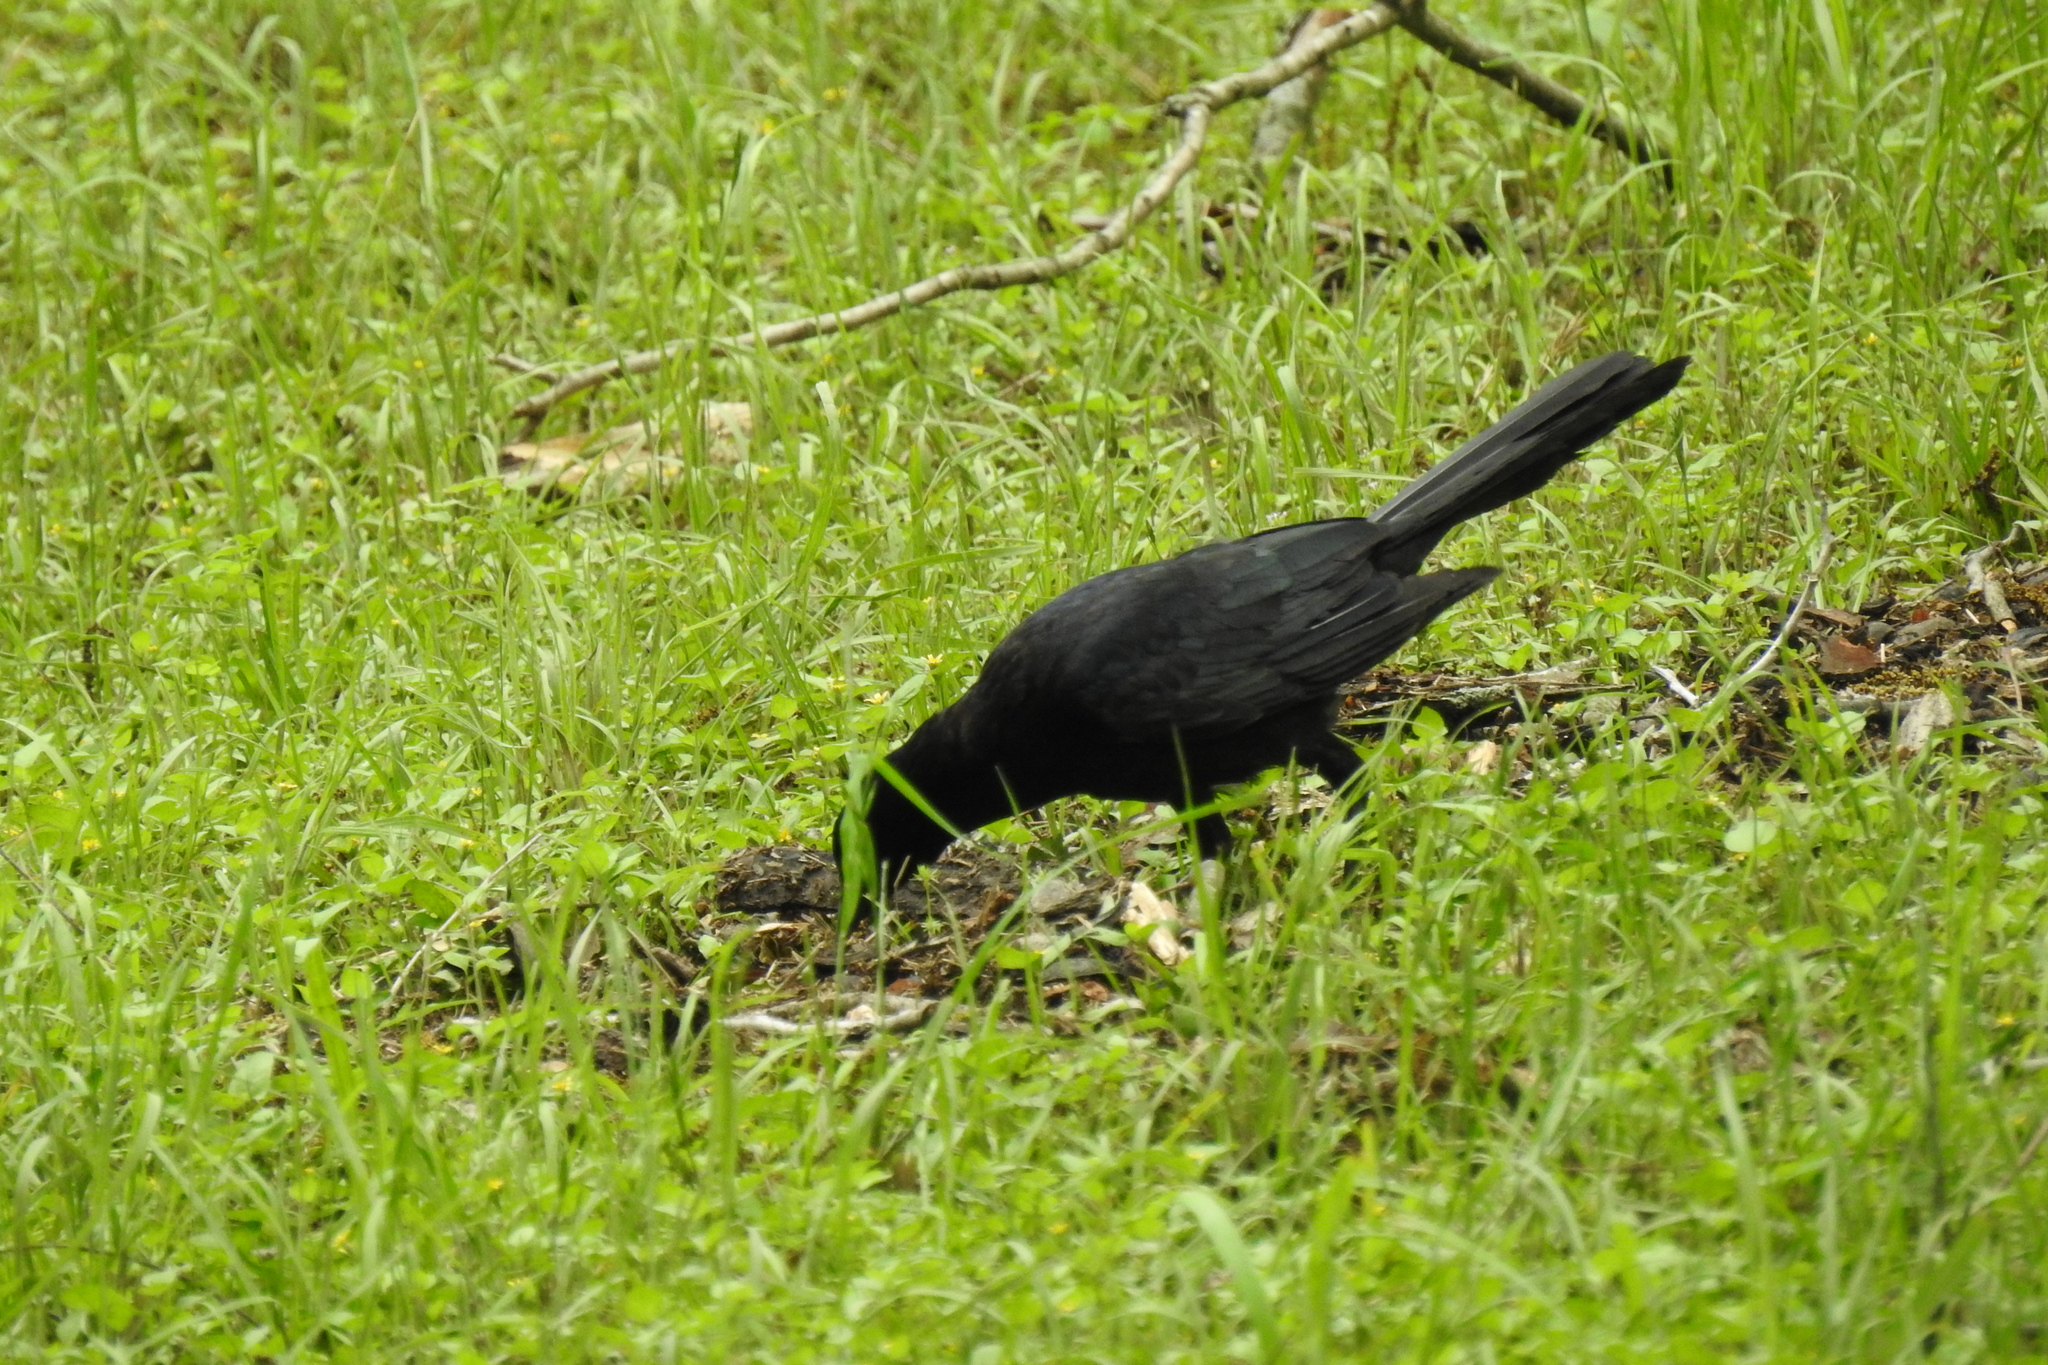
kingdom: Animalia
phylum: Chordata
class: Aves
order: Passeriformes
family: Icteridae
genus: Quiscalus
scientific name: Quiscalus mexicanus
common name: Great-tailed grackle
